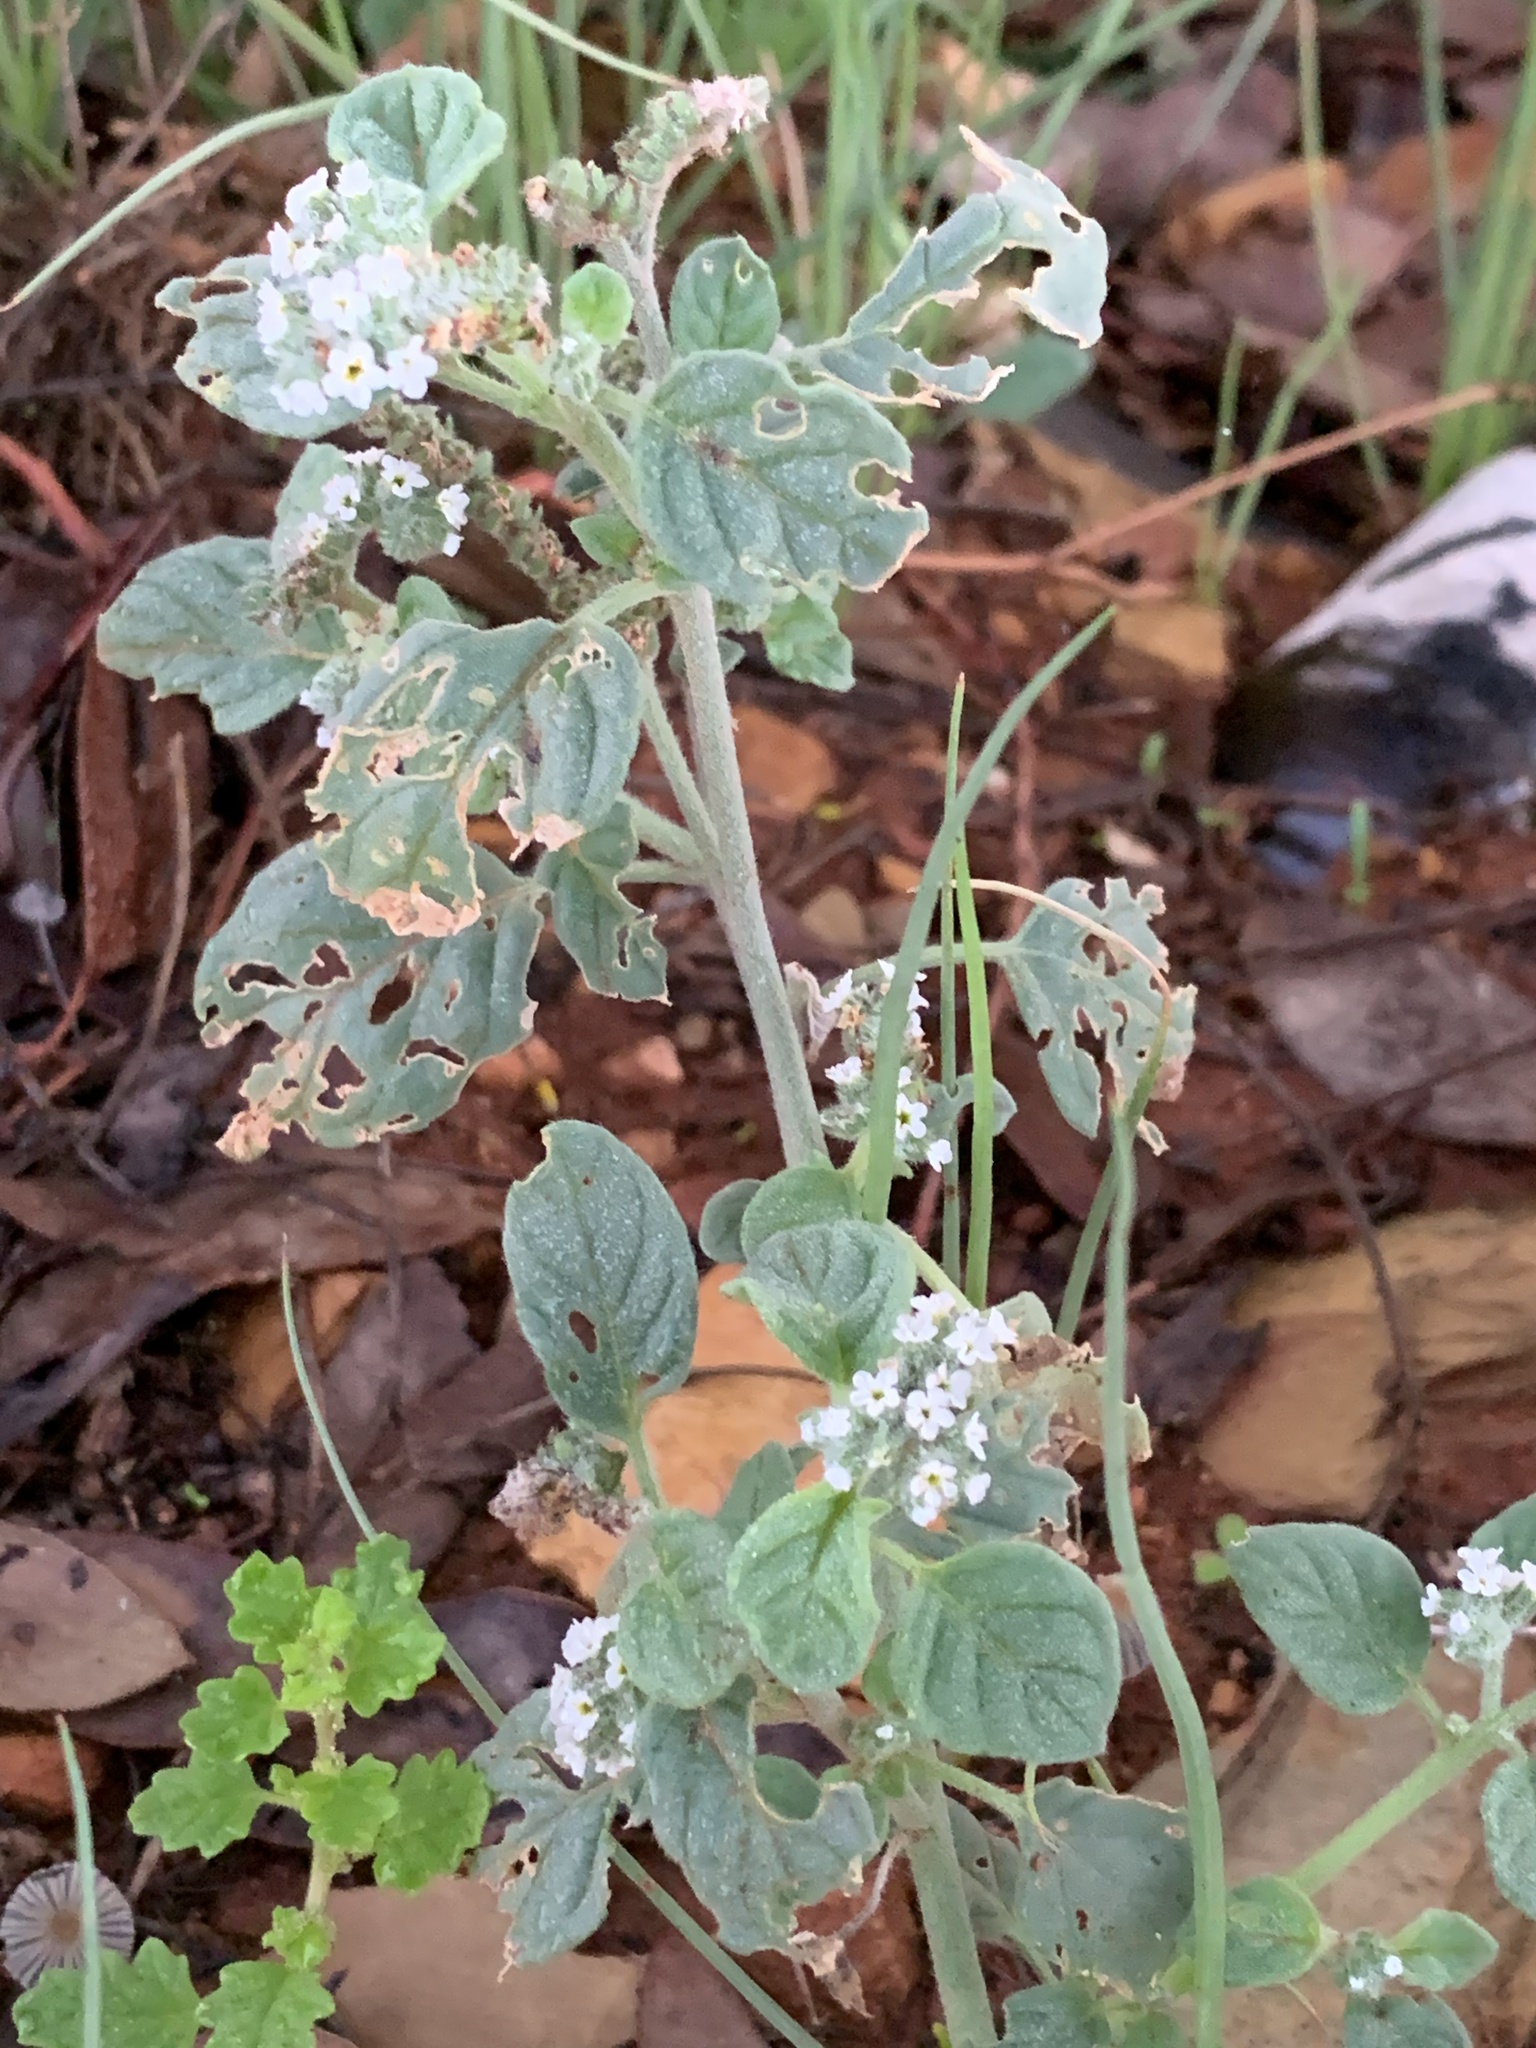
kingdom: Plantae
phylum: Tracheophyta
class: Magnoliopsida
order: Boraginales
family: Heliotropiaceae
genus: Heliotropium
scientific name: Heliotropium europaeum
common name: European heliotrope
